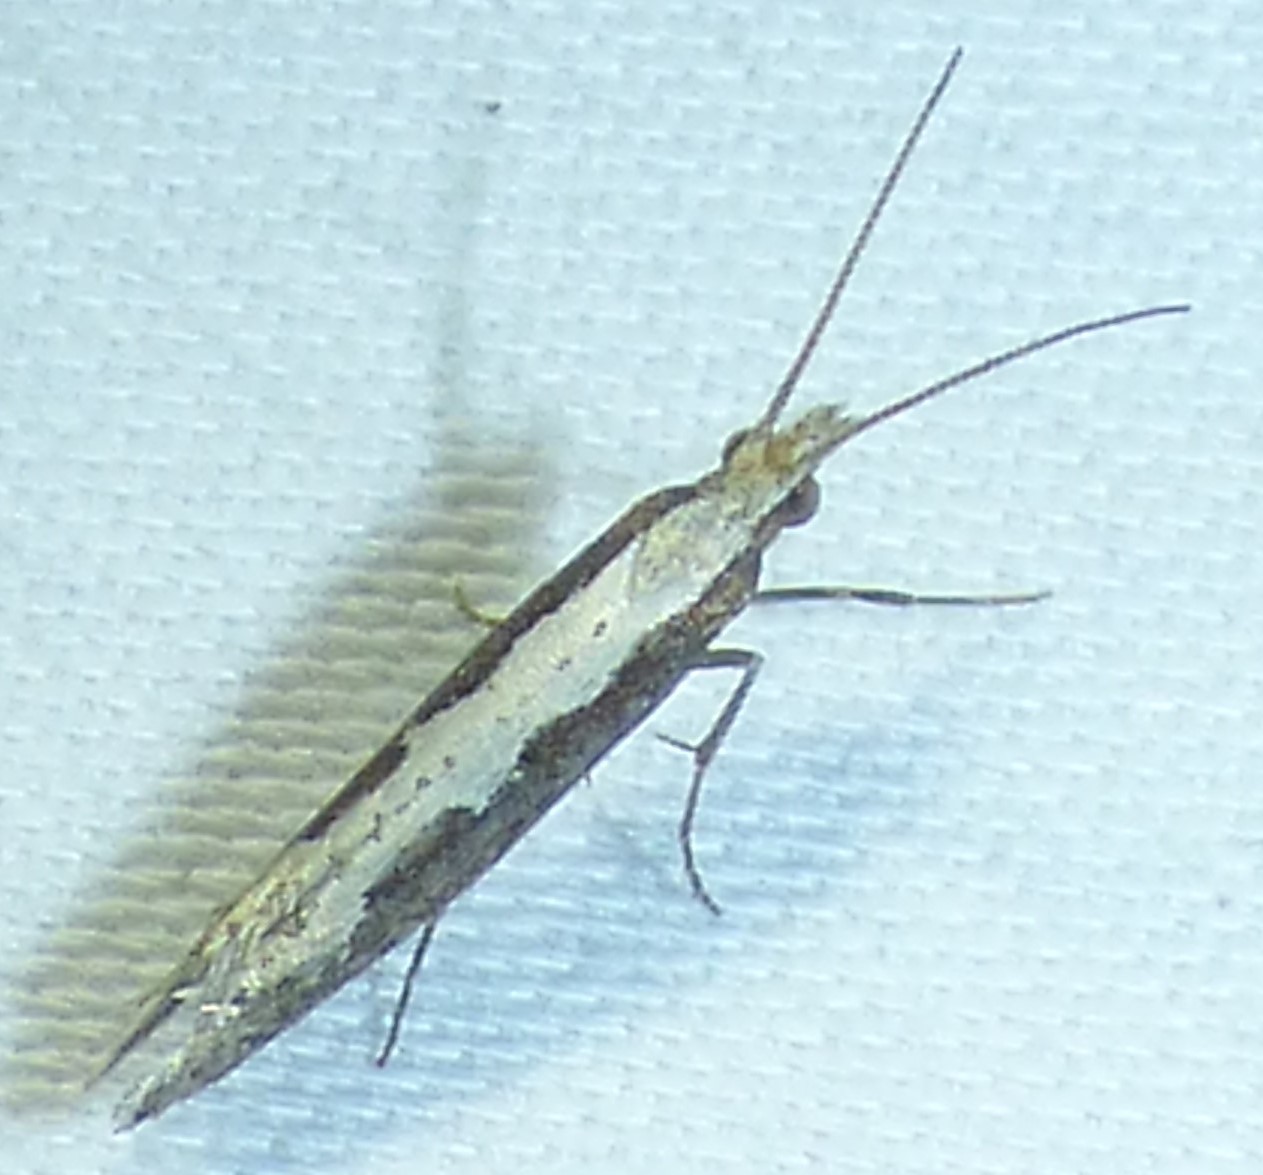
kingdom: Animalia
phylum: Arthropoda
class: Insecta
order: Lepidoptera
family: Plutellidae
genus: Plutella
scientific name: Plutella xylostella
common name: Diamond-back moth
